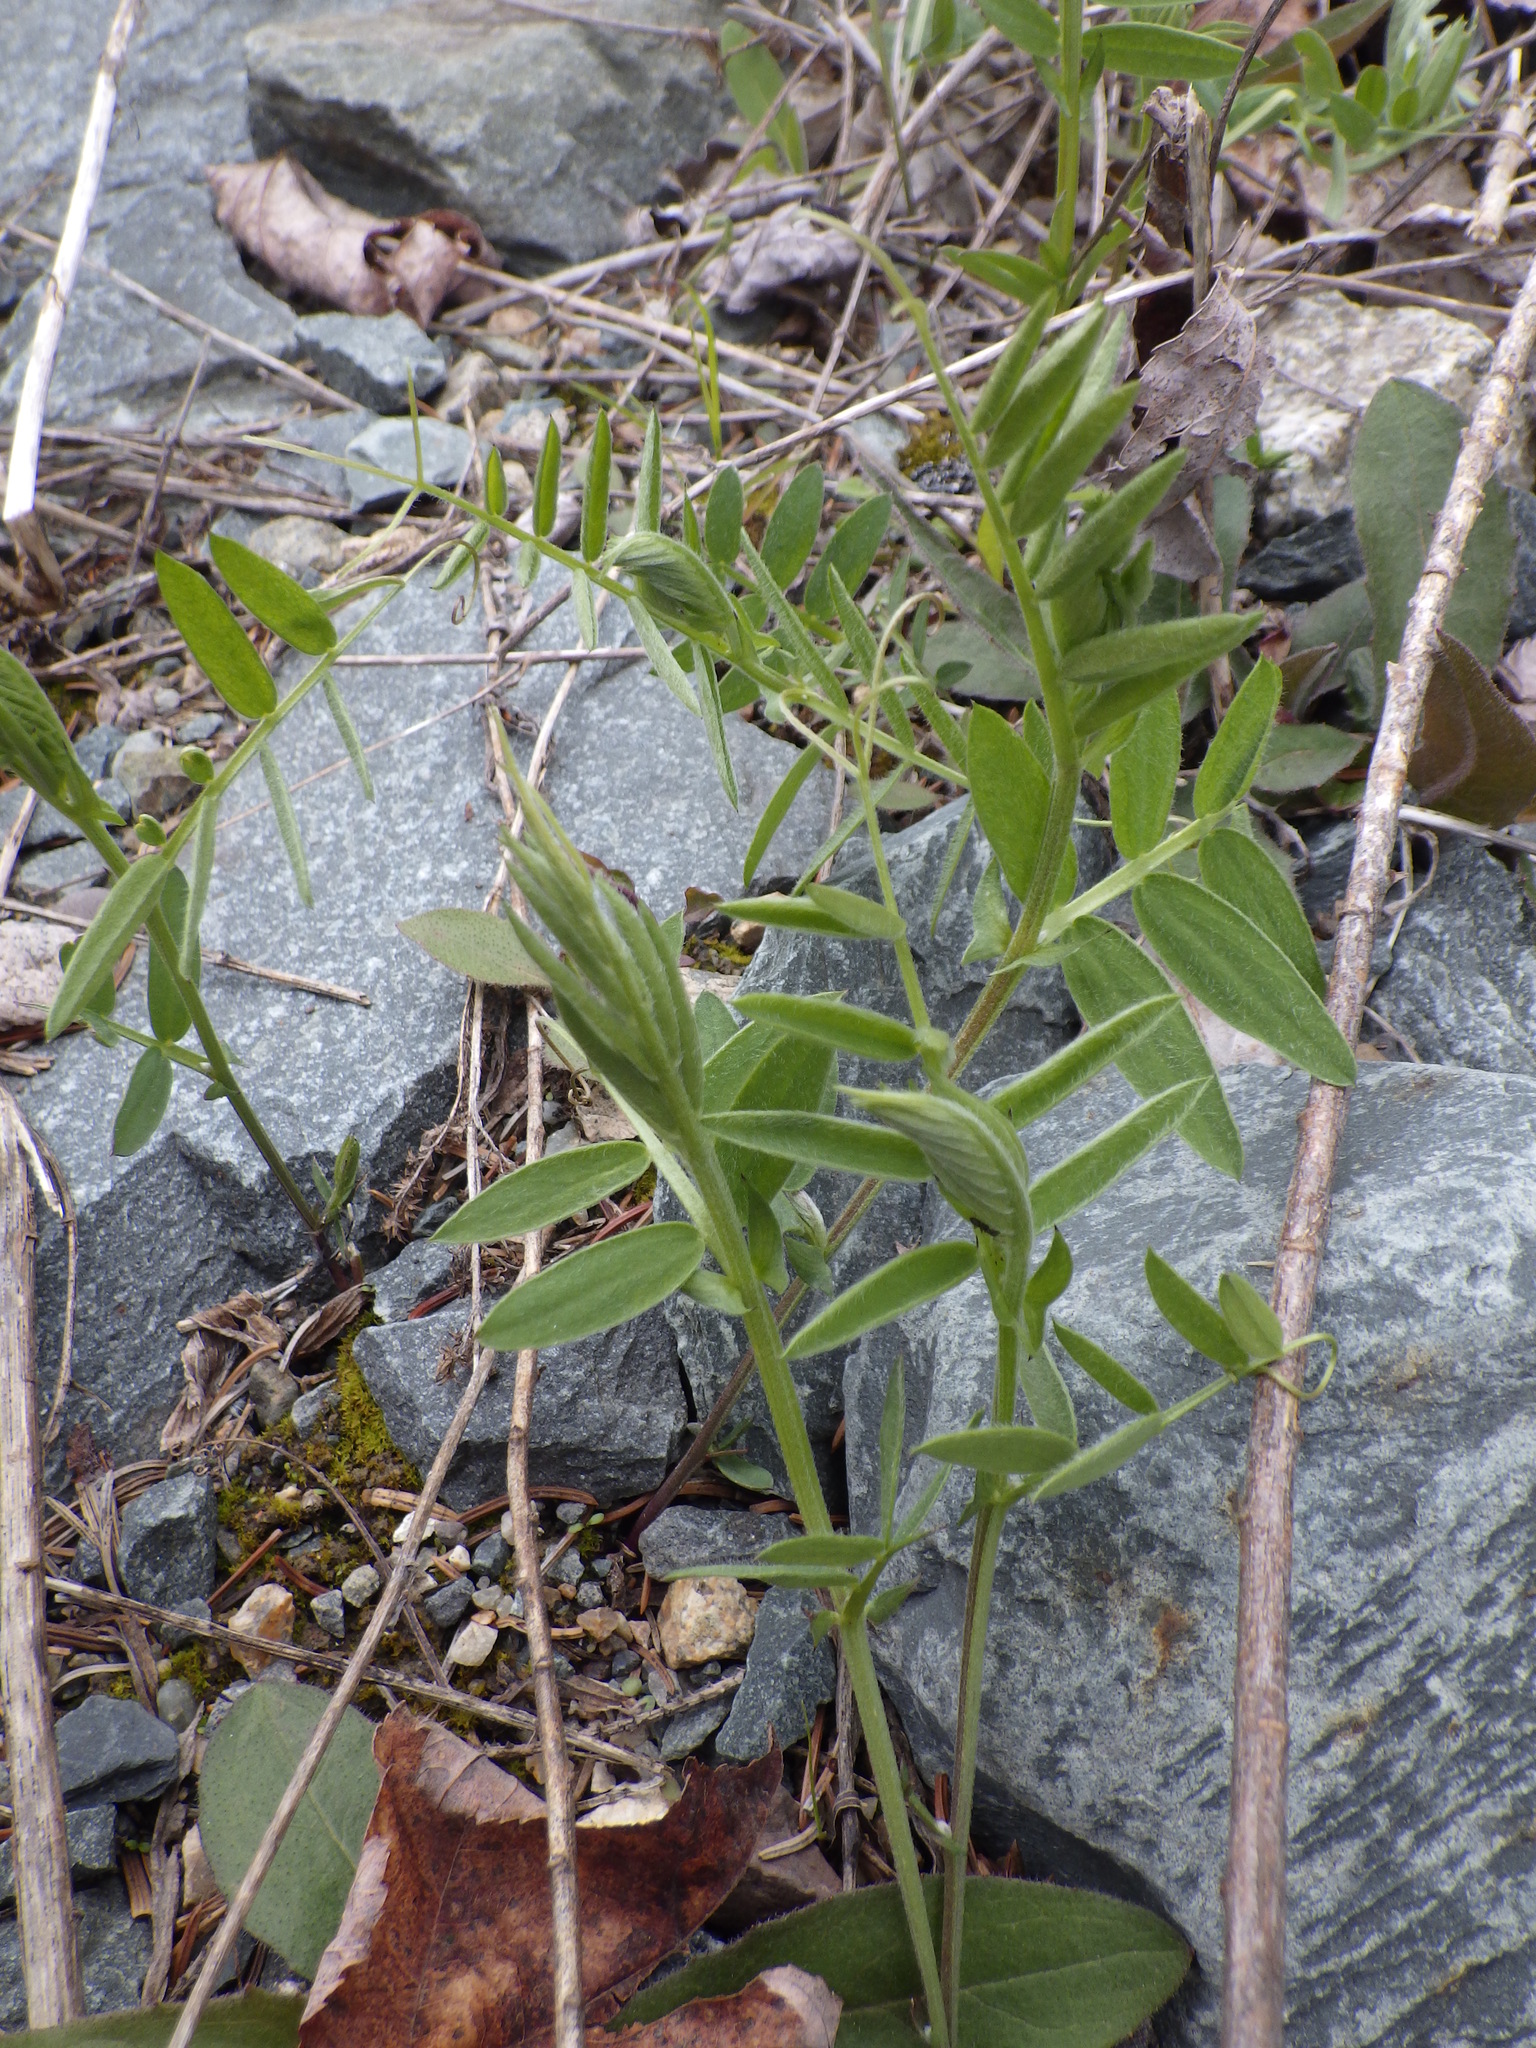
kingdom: Plantae
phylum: Tracheophyta
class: Magnoliopsida
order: Fabales
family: Fabaceae
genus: Vicia
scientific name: Vicia cracca
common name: Bird vetch
